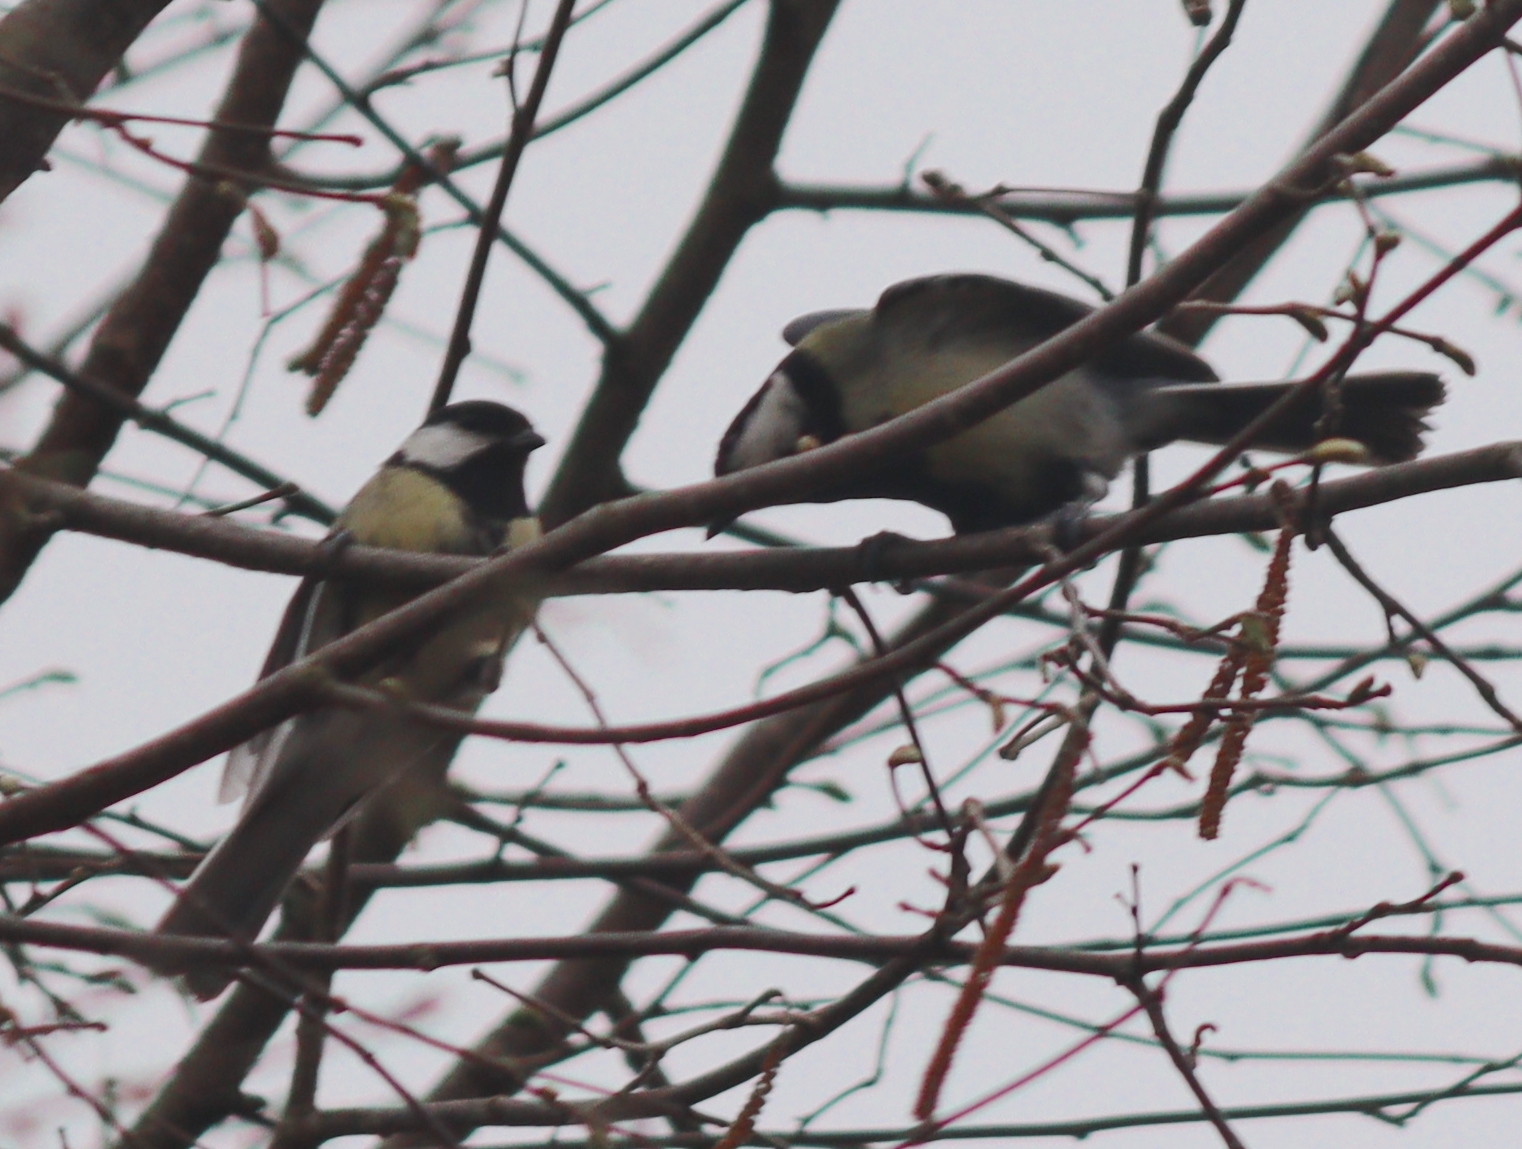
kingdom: Animalia
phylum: Chordata
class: Aves
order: Passeriformes
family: Paridae
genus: Parus
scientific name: Parus major
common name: Great tit
